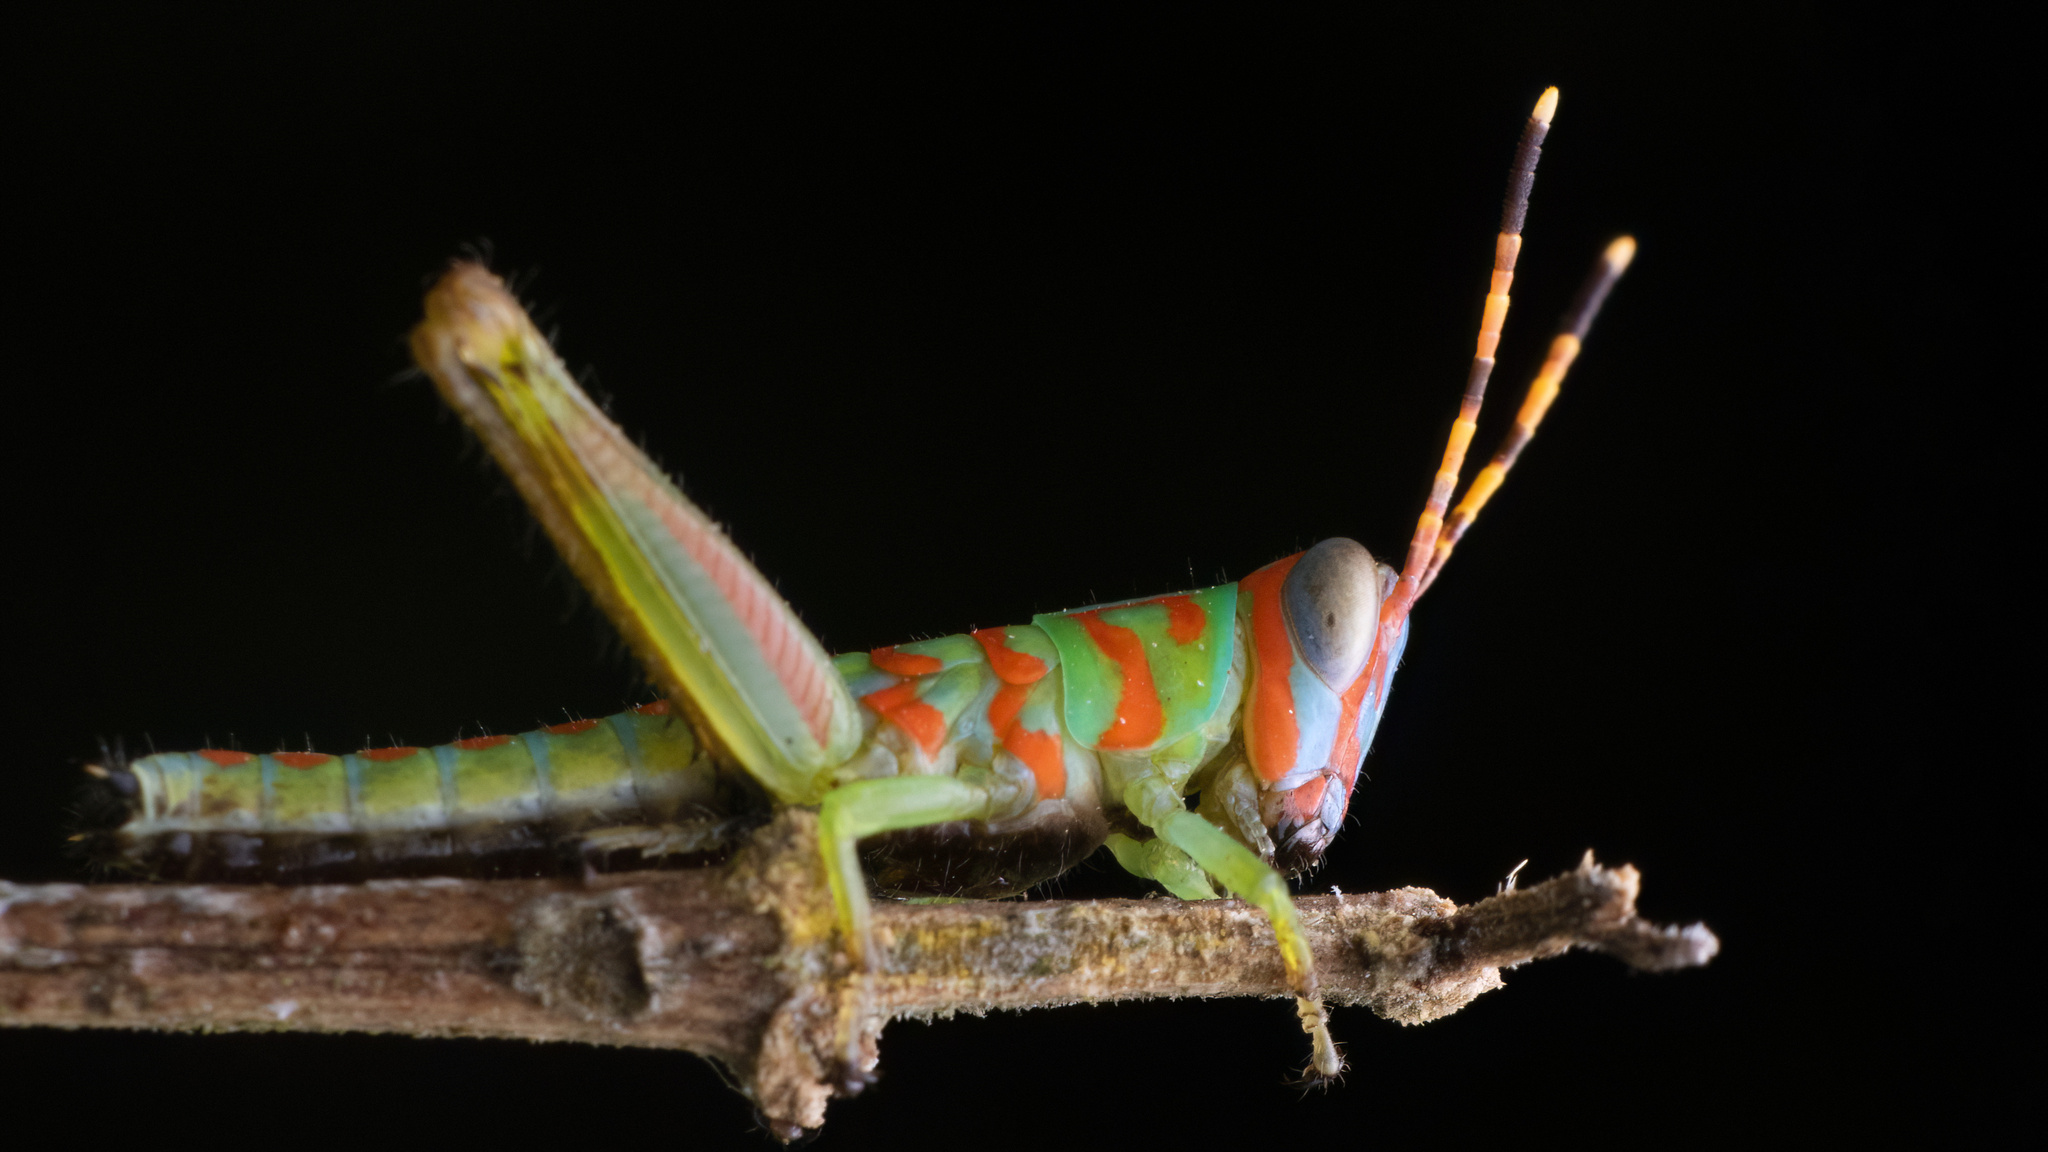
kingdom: Animalia
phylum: Arthropoda
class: Insecta
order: Orthoptera
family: Acrididae
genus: Pirithoicus
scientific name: Pirithoicus ophthalmicus
